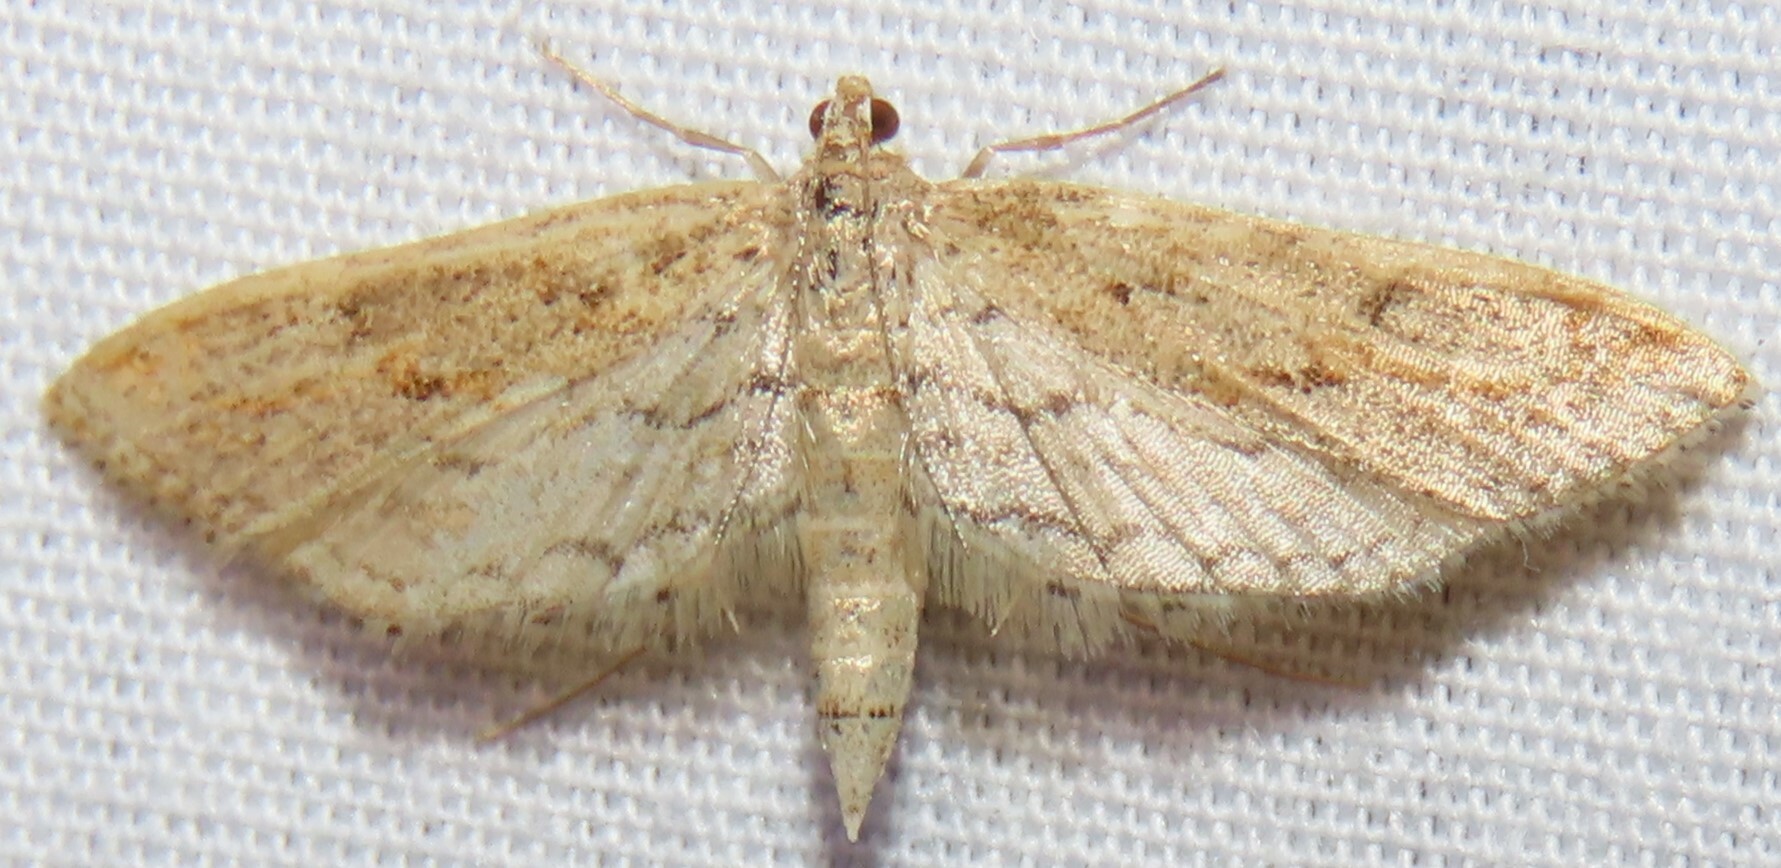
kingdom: Animalia
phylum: Arthropoda
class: Insecta
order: Lepidoptera
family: Crambidae
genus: Parapoynx
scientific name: Parapoynx allionealis
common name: Bladderwort casemaker
